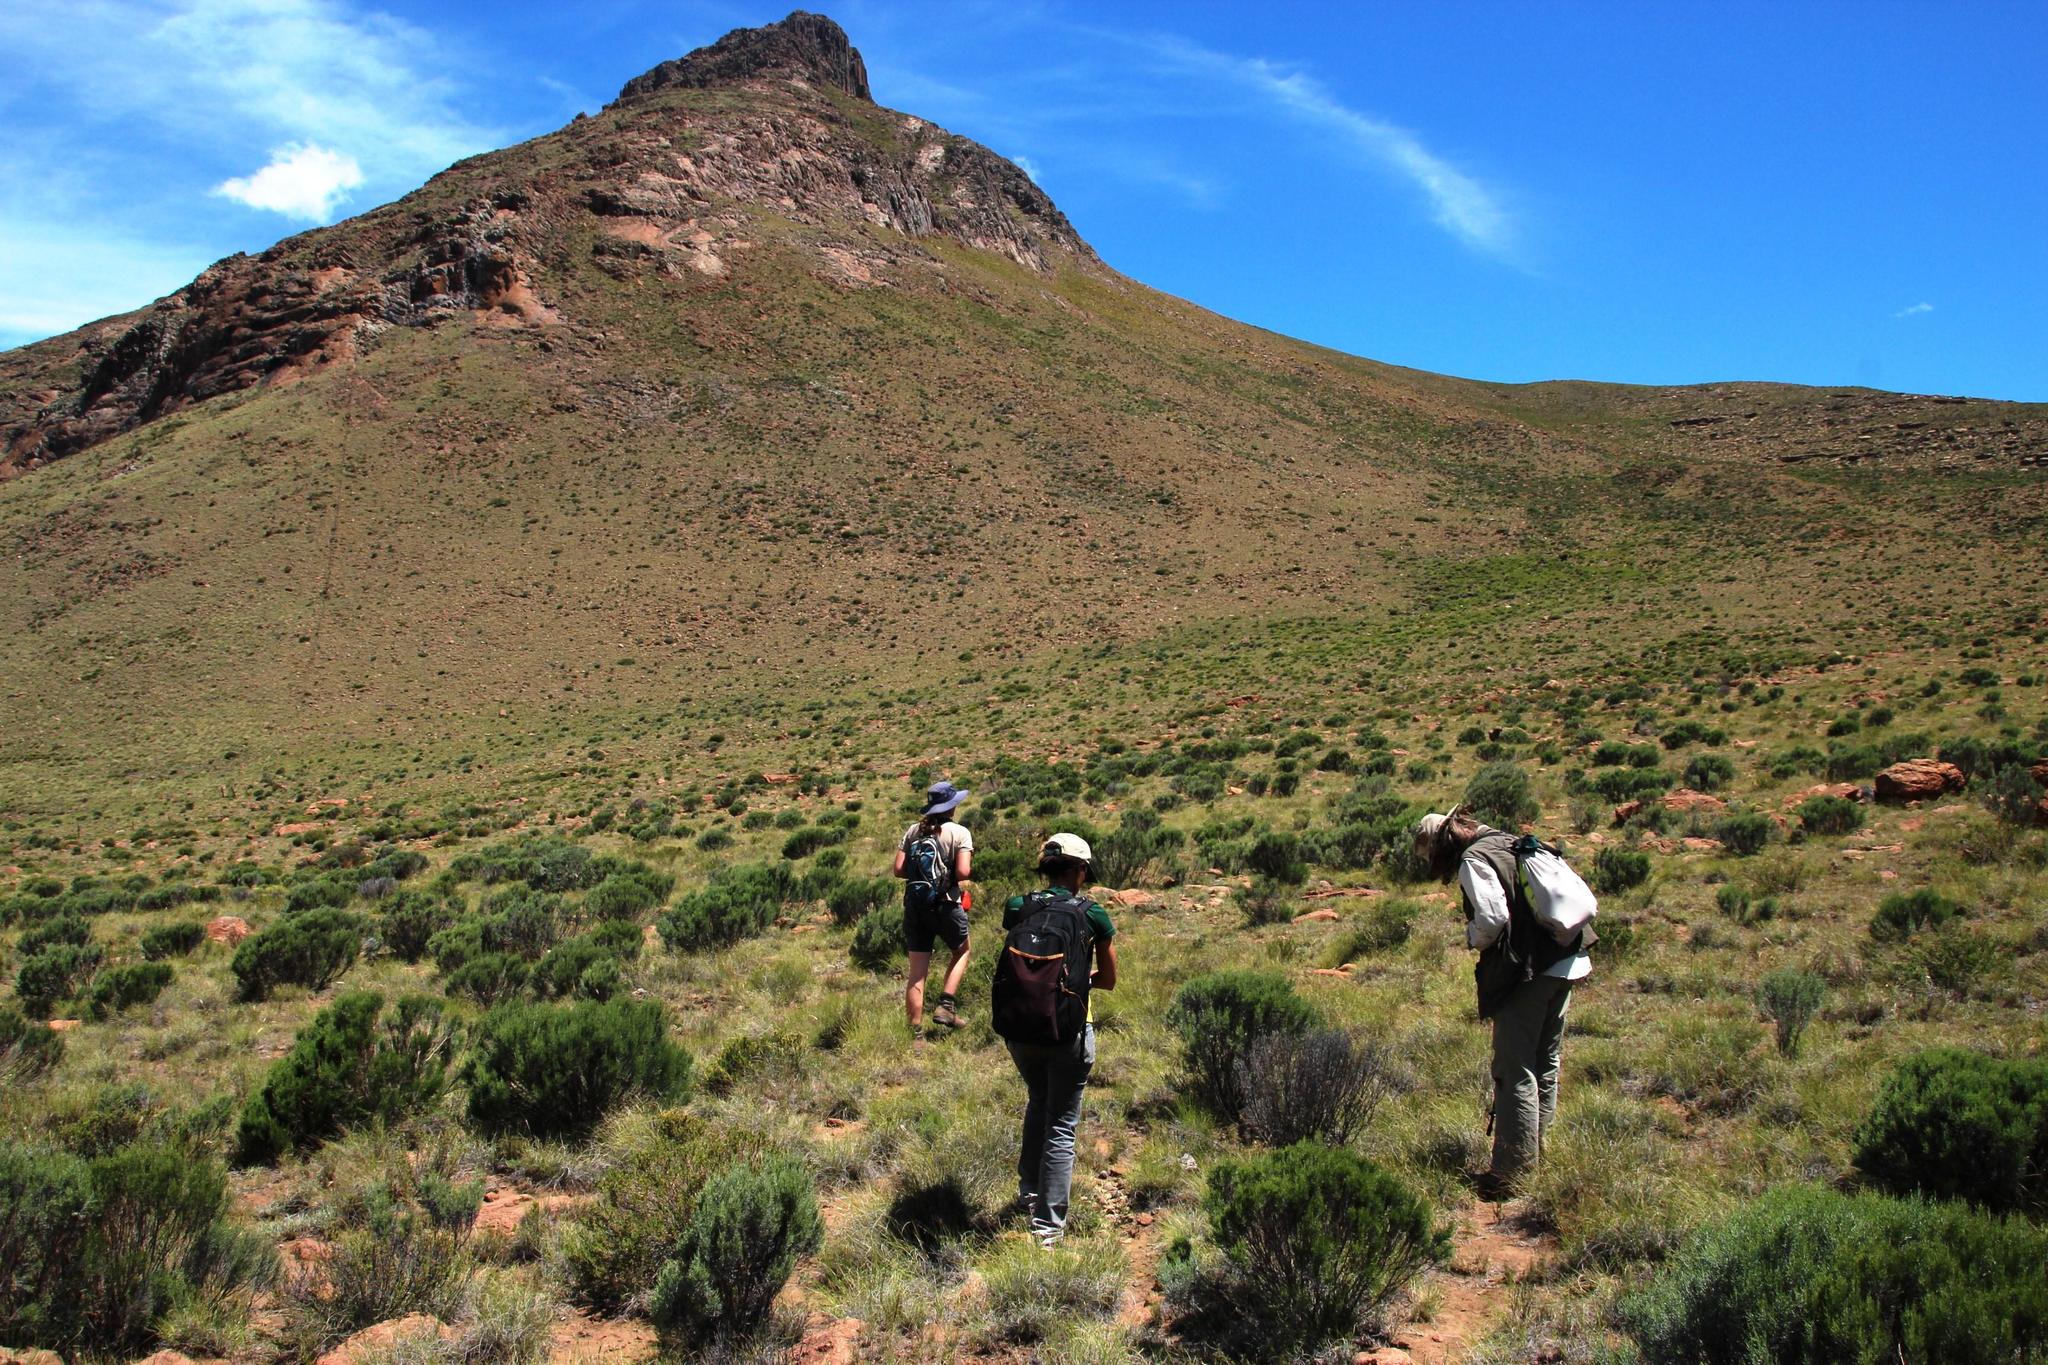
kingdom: Plantae
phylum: Tracheophyta
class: Magnoliopsida
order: Asterales
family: Asteraceae
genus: Dicerothamnus
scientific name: Dicerothamnus rhinocerotis
